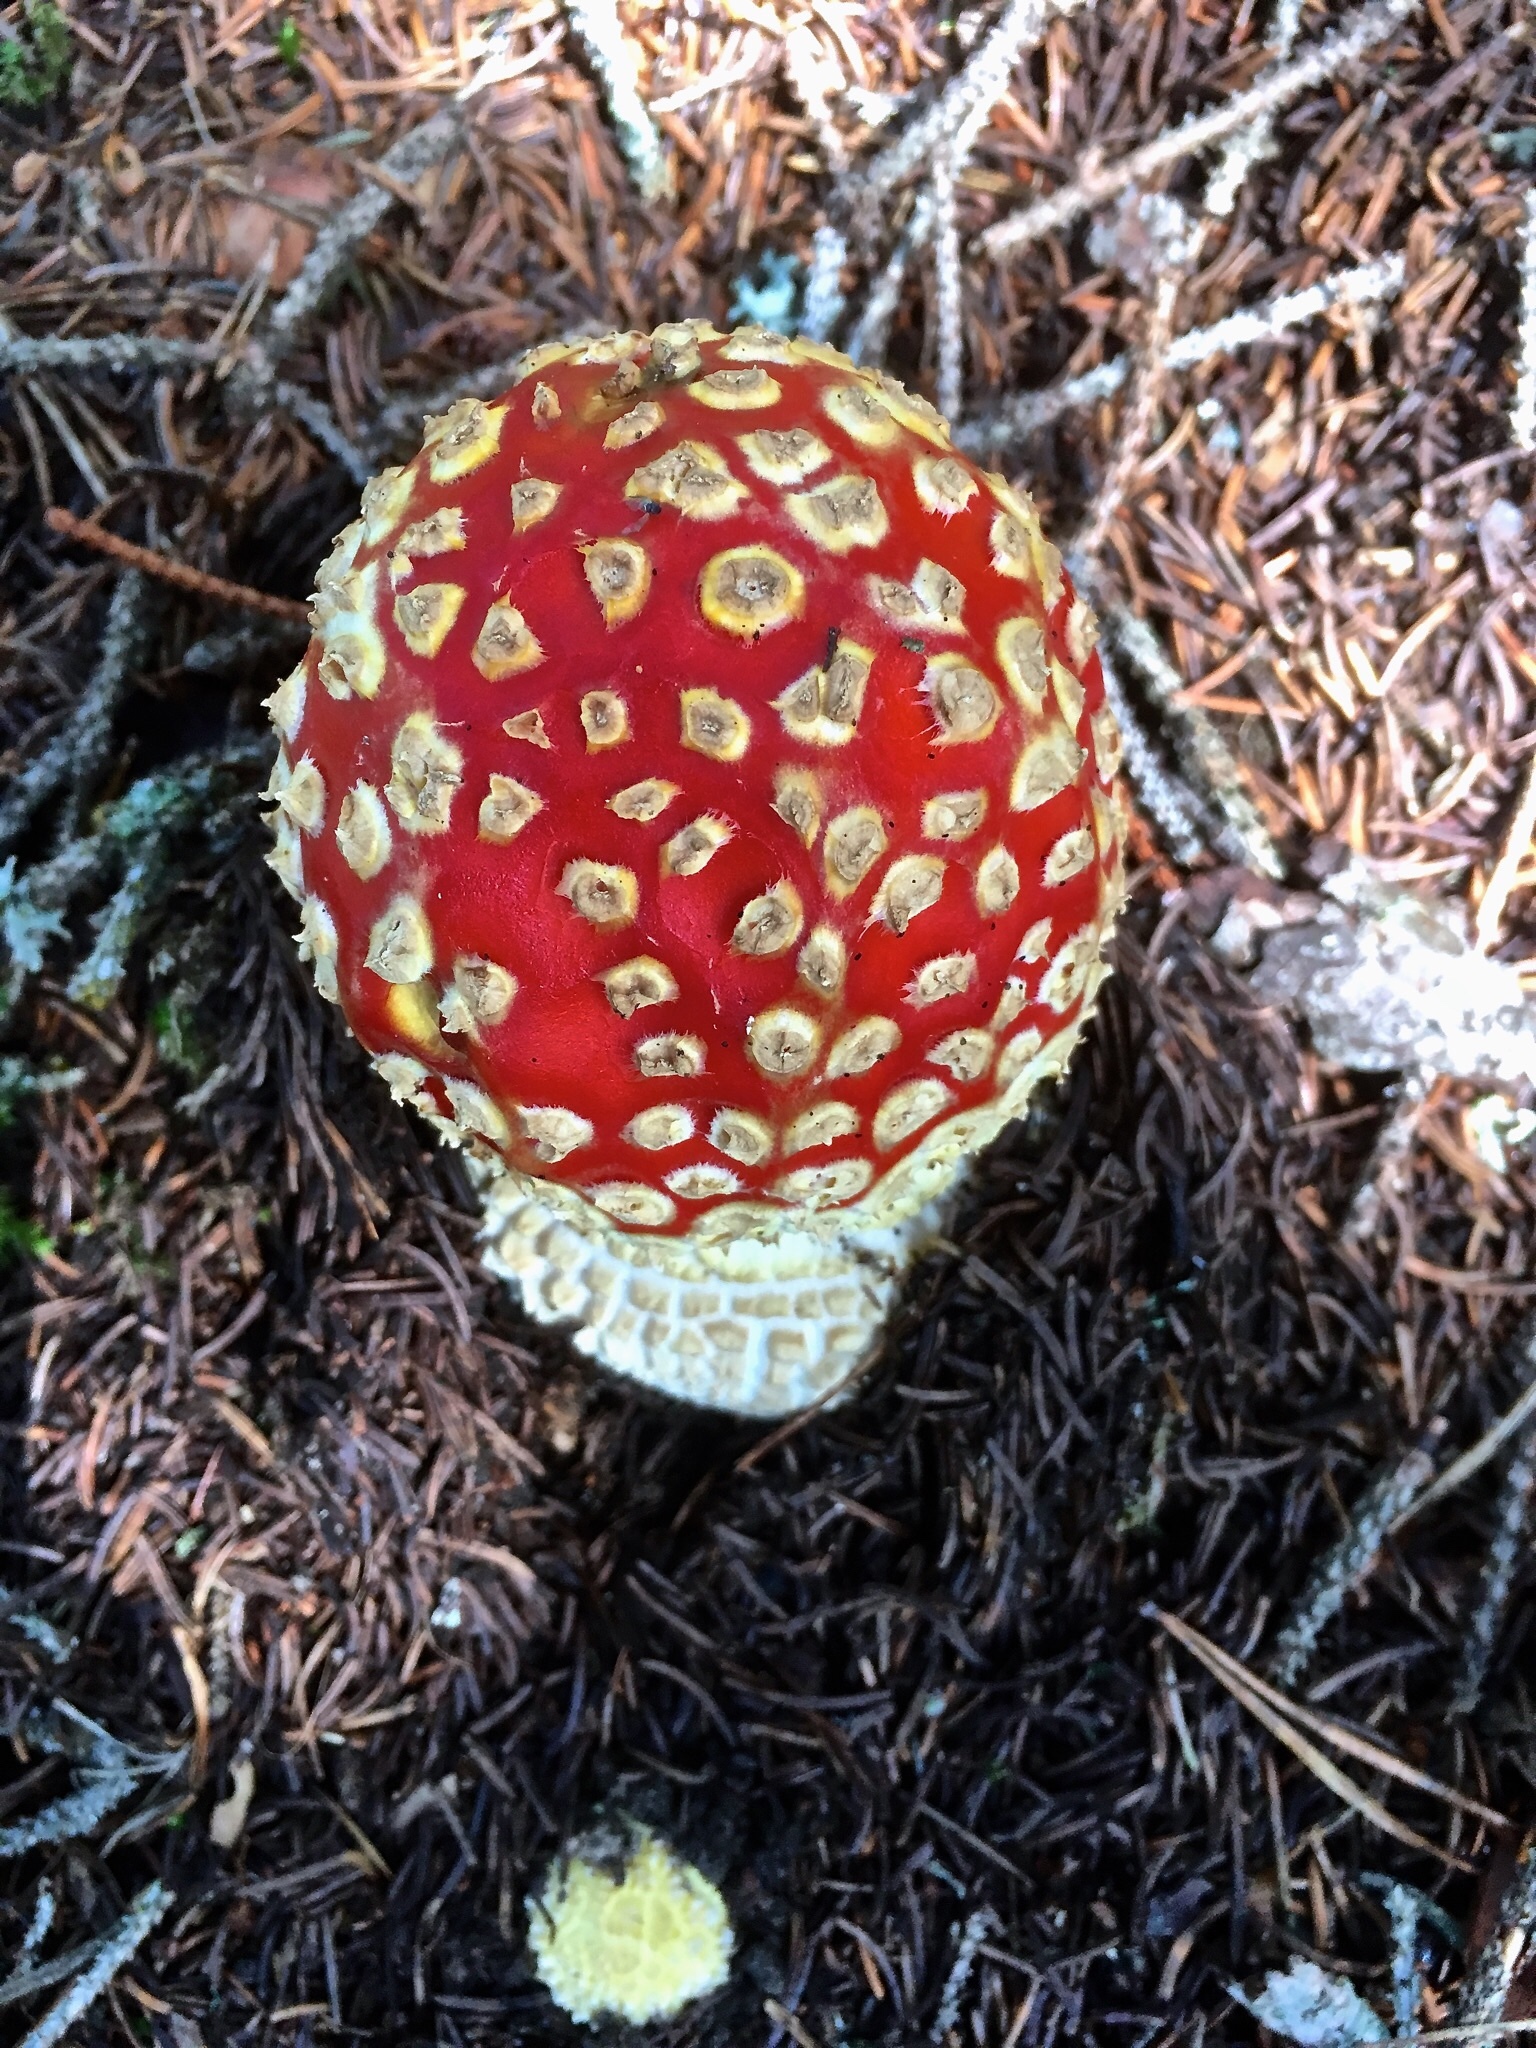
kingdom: Fungi
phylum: Basidiomycota
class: Agaricomycetes
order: Agaricales
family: Amanitaceae
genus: Amanita
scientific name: Amanita muscaria
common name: Fly agaric
